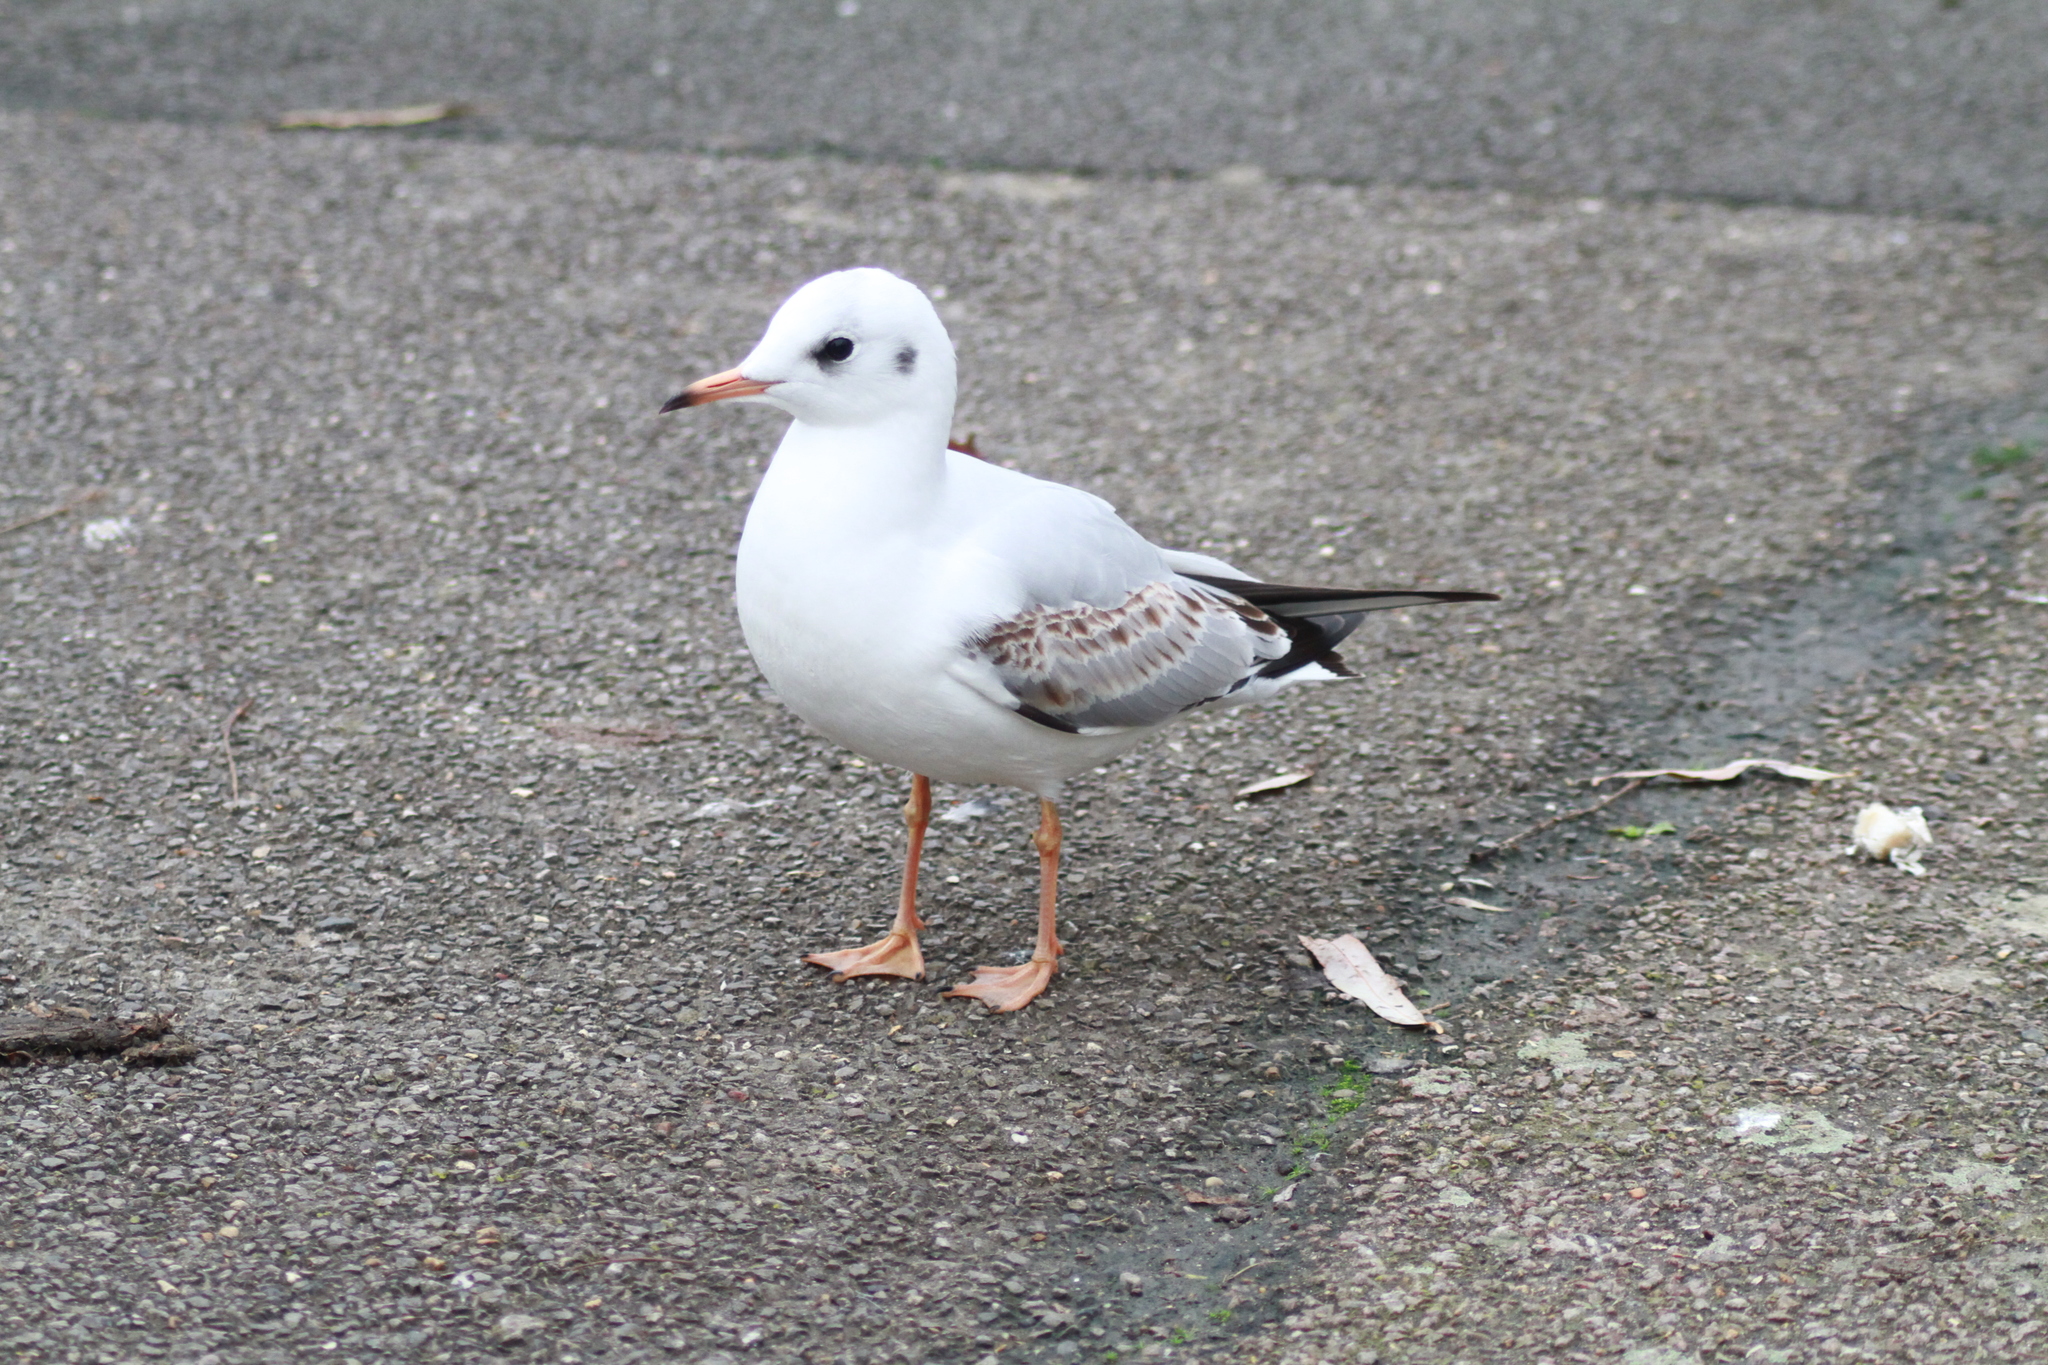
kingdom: Animalia
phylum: Chordata
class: Aves
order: Charadriiformes
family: Laridae
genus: Chroicocephalus
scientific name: Chroicocephalus ridibundus
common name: Black-headed gull
